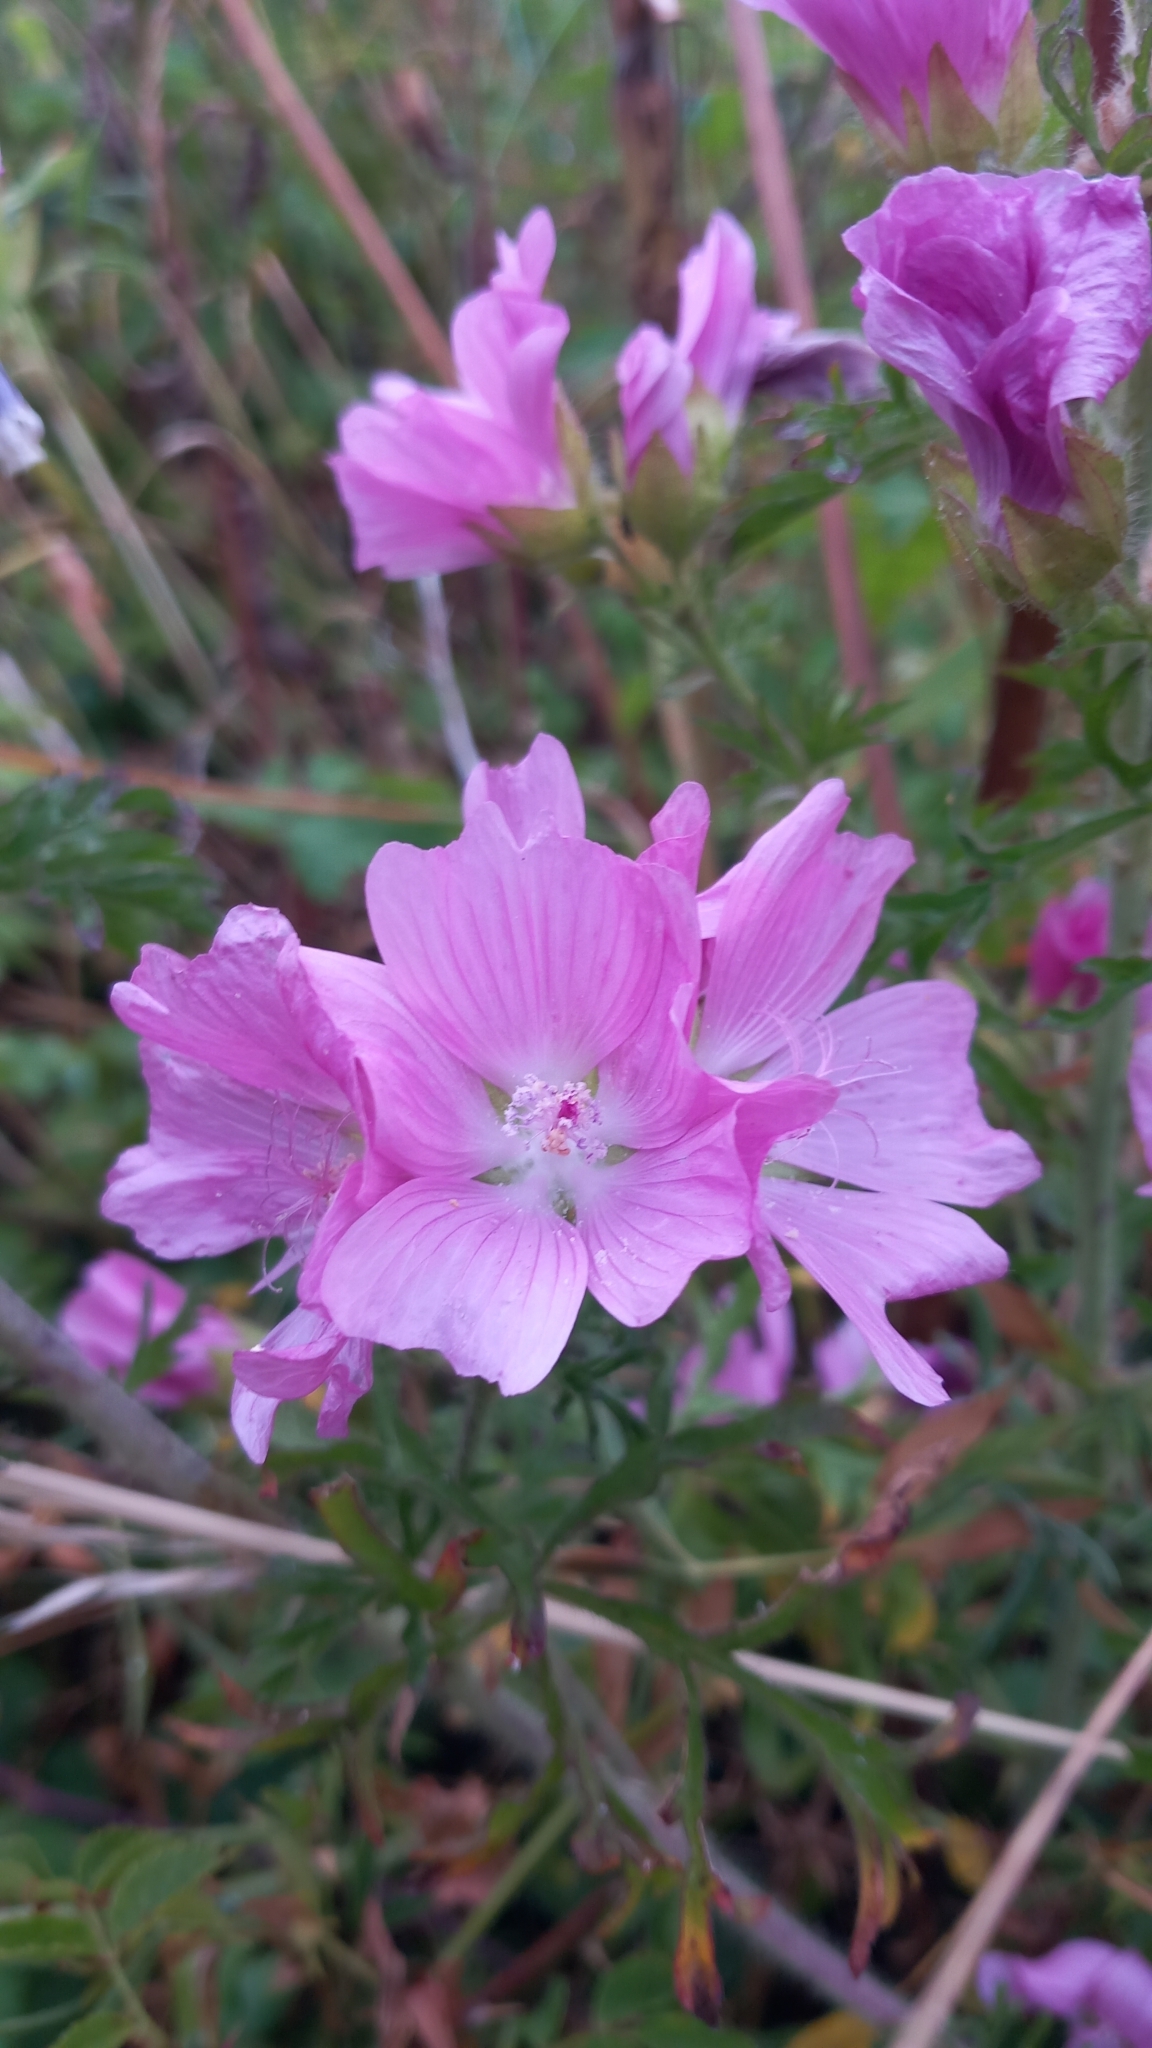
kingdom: Plantae
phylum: Tracheophyta
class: Magnoliopsida
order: Malvales
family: Malvaceae
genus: Malva
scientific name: Malva moschata
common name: Musk mallow
